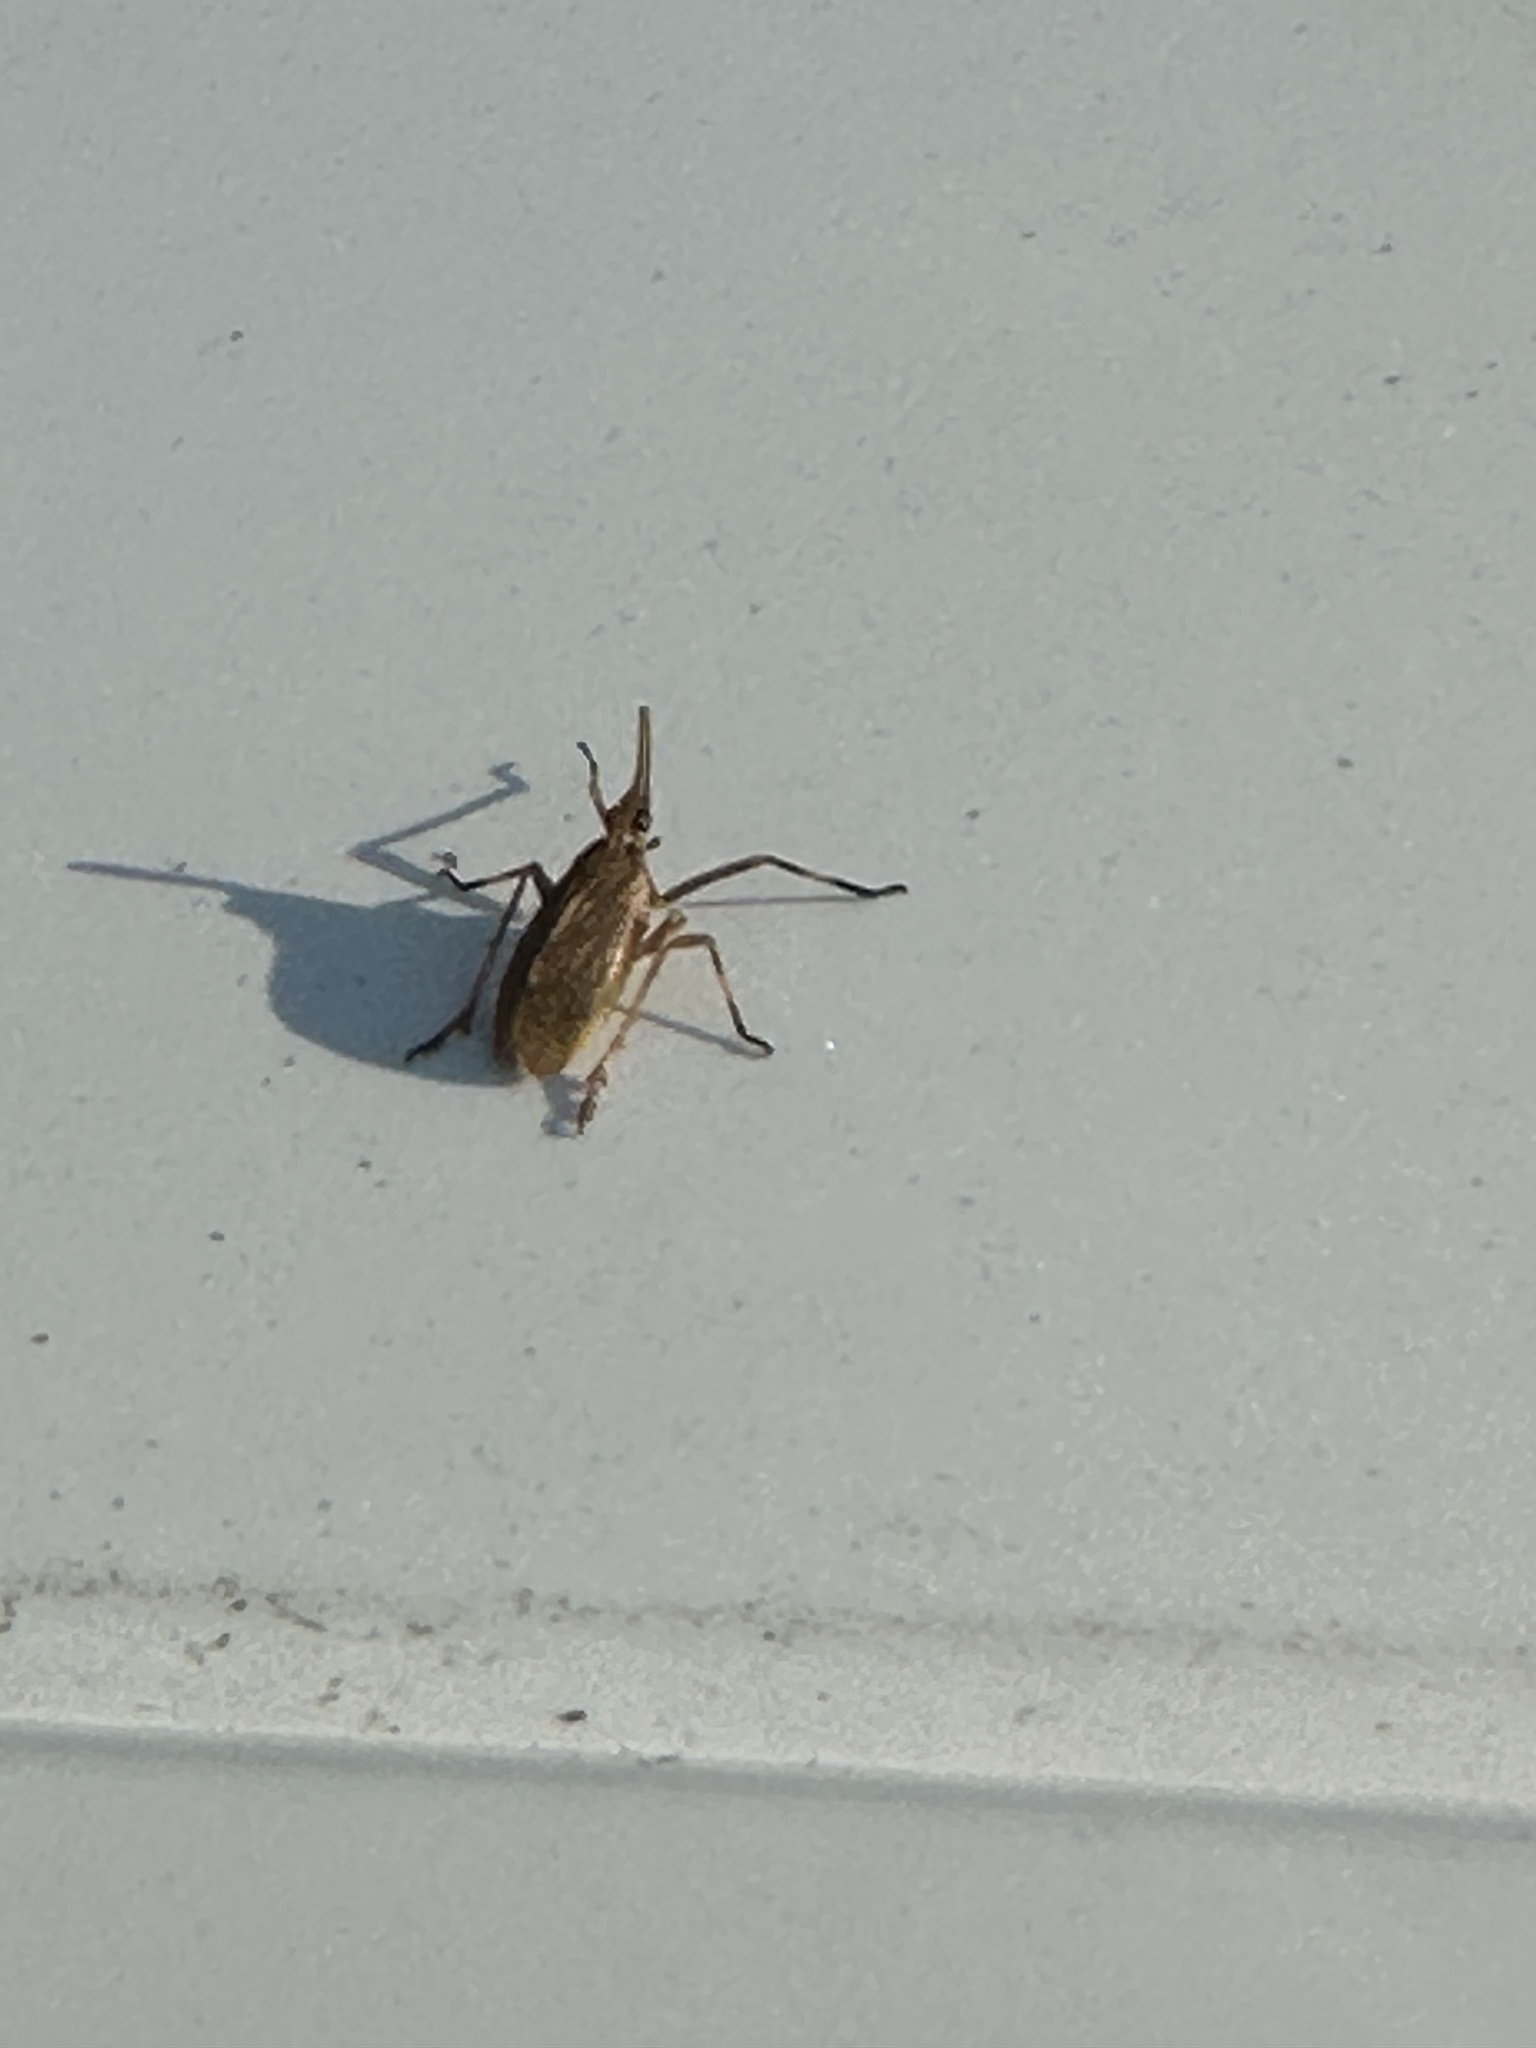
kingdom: Animalia
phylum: Arthropoda
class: Insecta
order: Hemiptera
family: Dictyopharidae
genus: Scolops
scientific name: Scolops sulcipes
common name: Partridge planthopper
